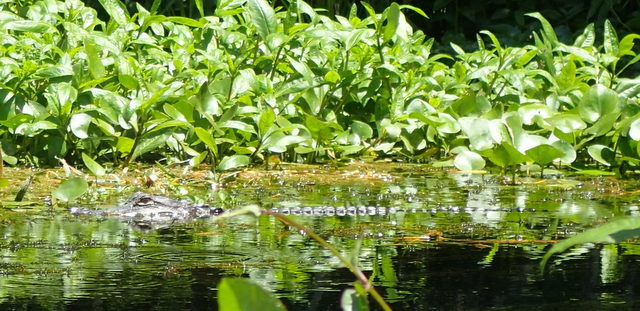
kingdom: Animalia
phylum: Chordata
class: Crocodylia
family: Alligatoridae
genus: Alligator
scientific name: Alligator mississippiensis
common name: American alligator
